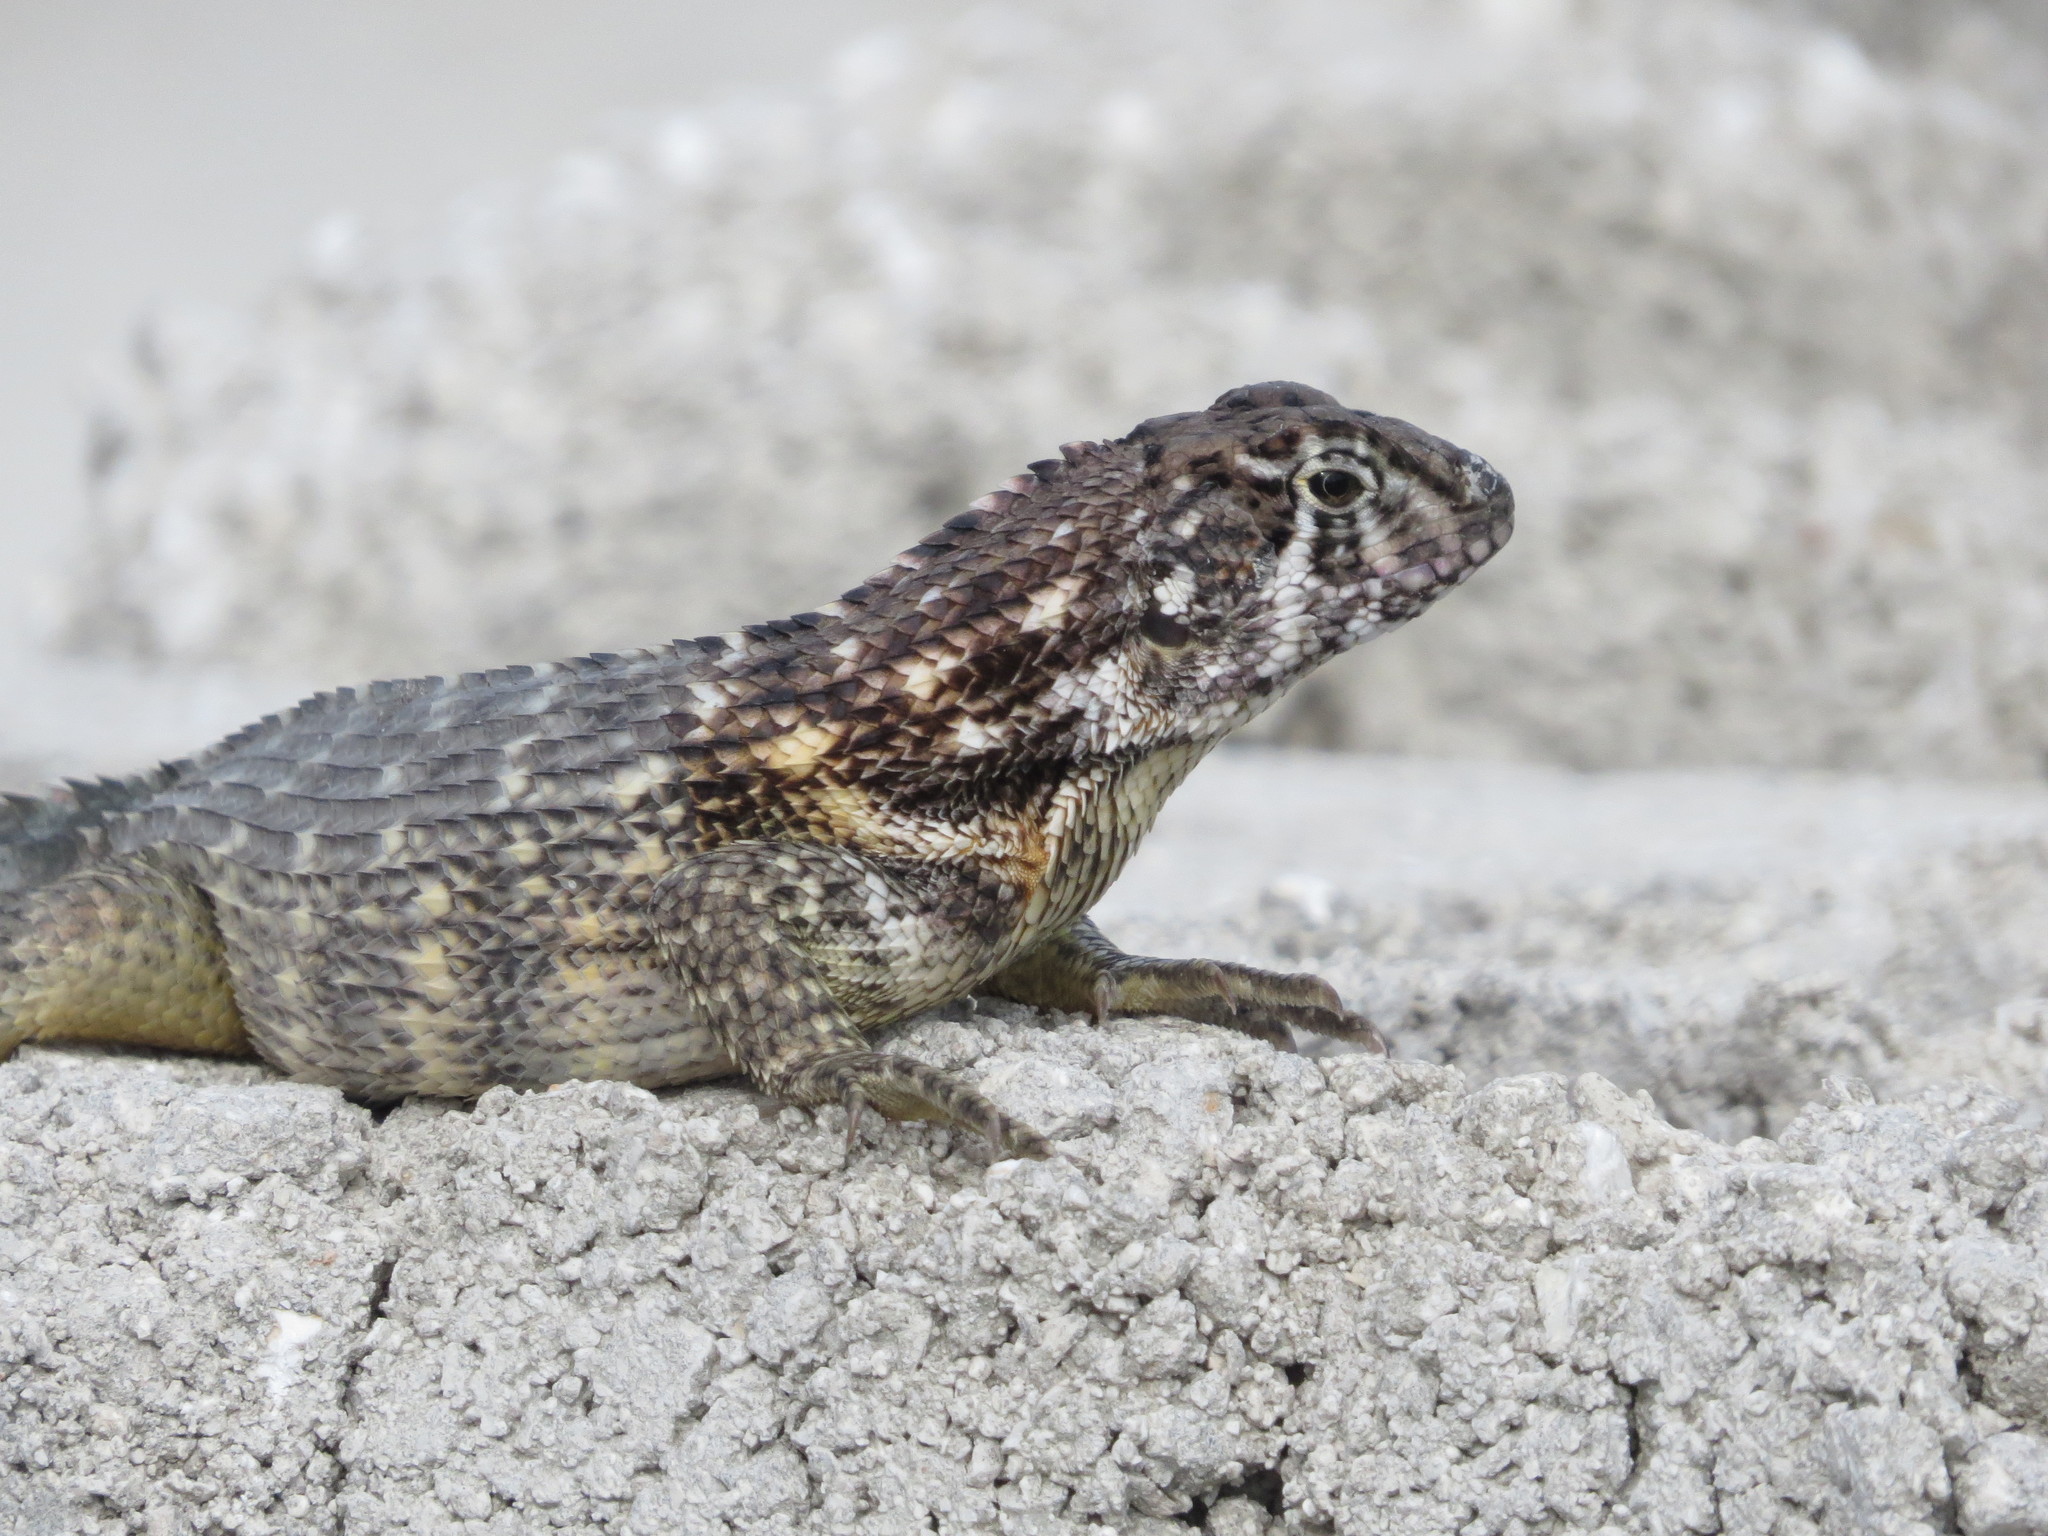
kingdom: Animalia
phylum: Chordata
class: Squamata
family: Leiocephalidae
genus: Leiocephalus
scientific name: Leiocephalus carinatus
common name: Northern curly-tailed lizard
